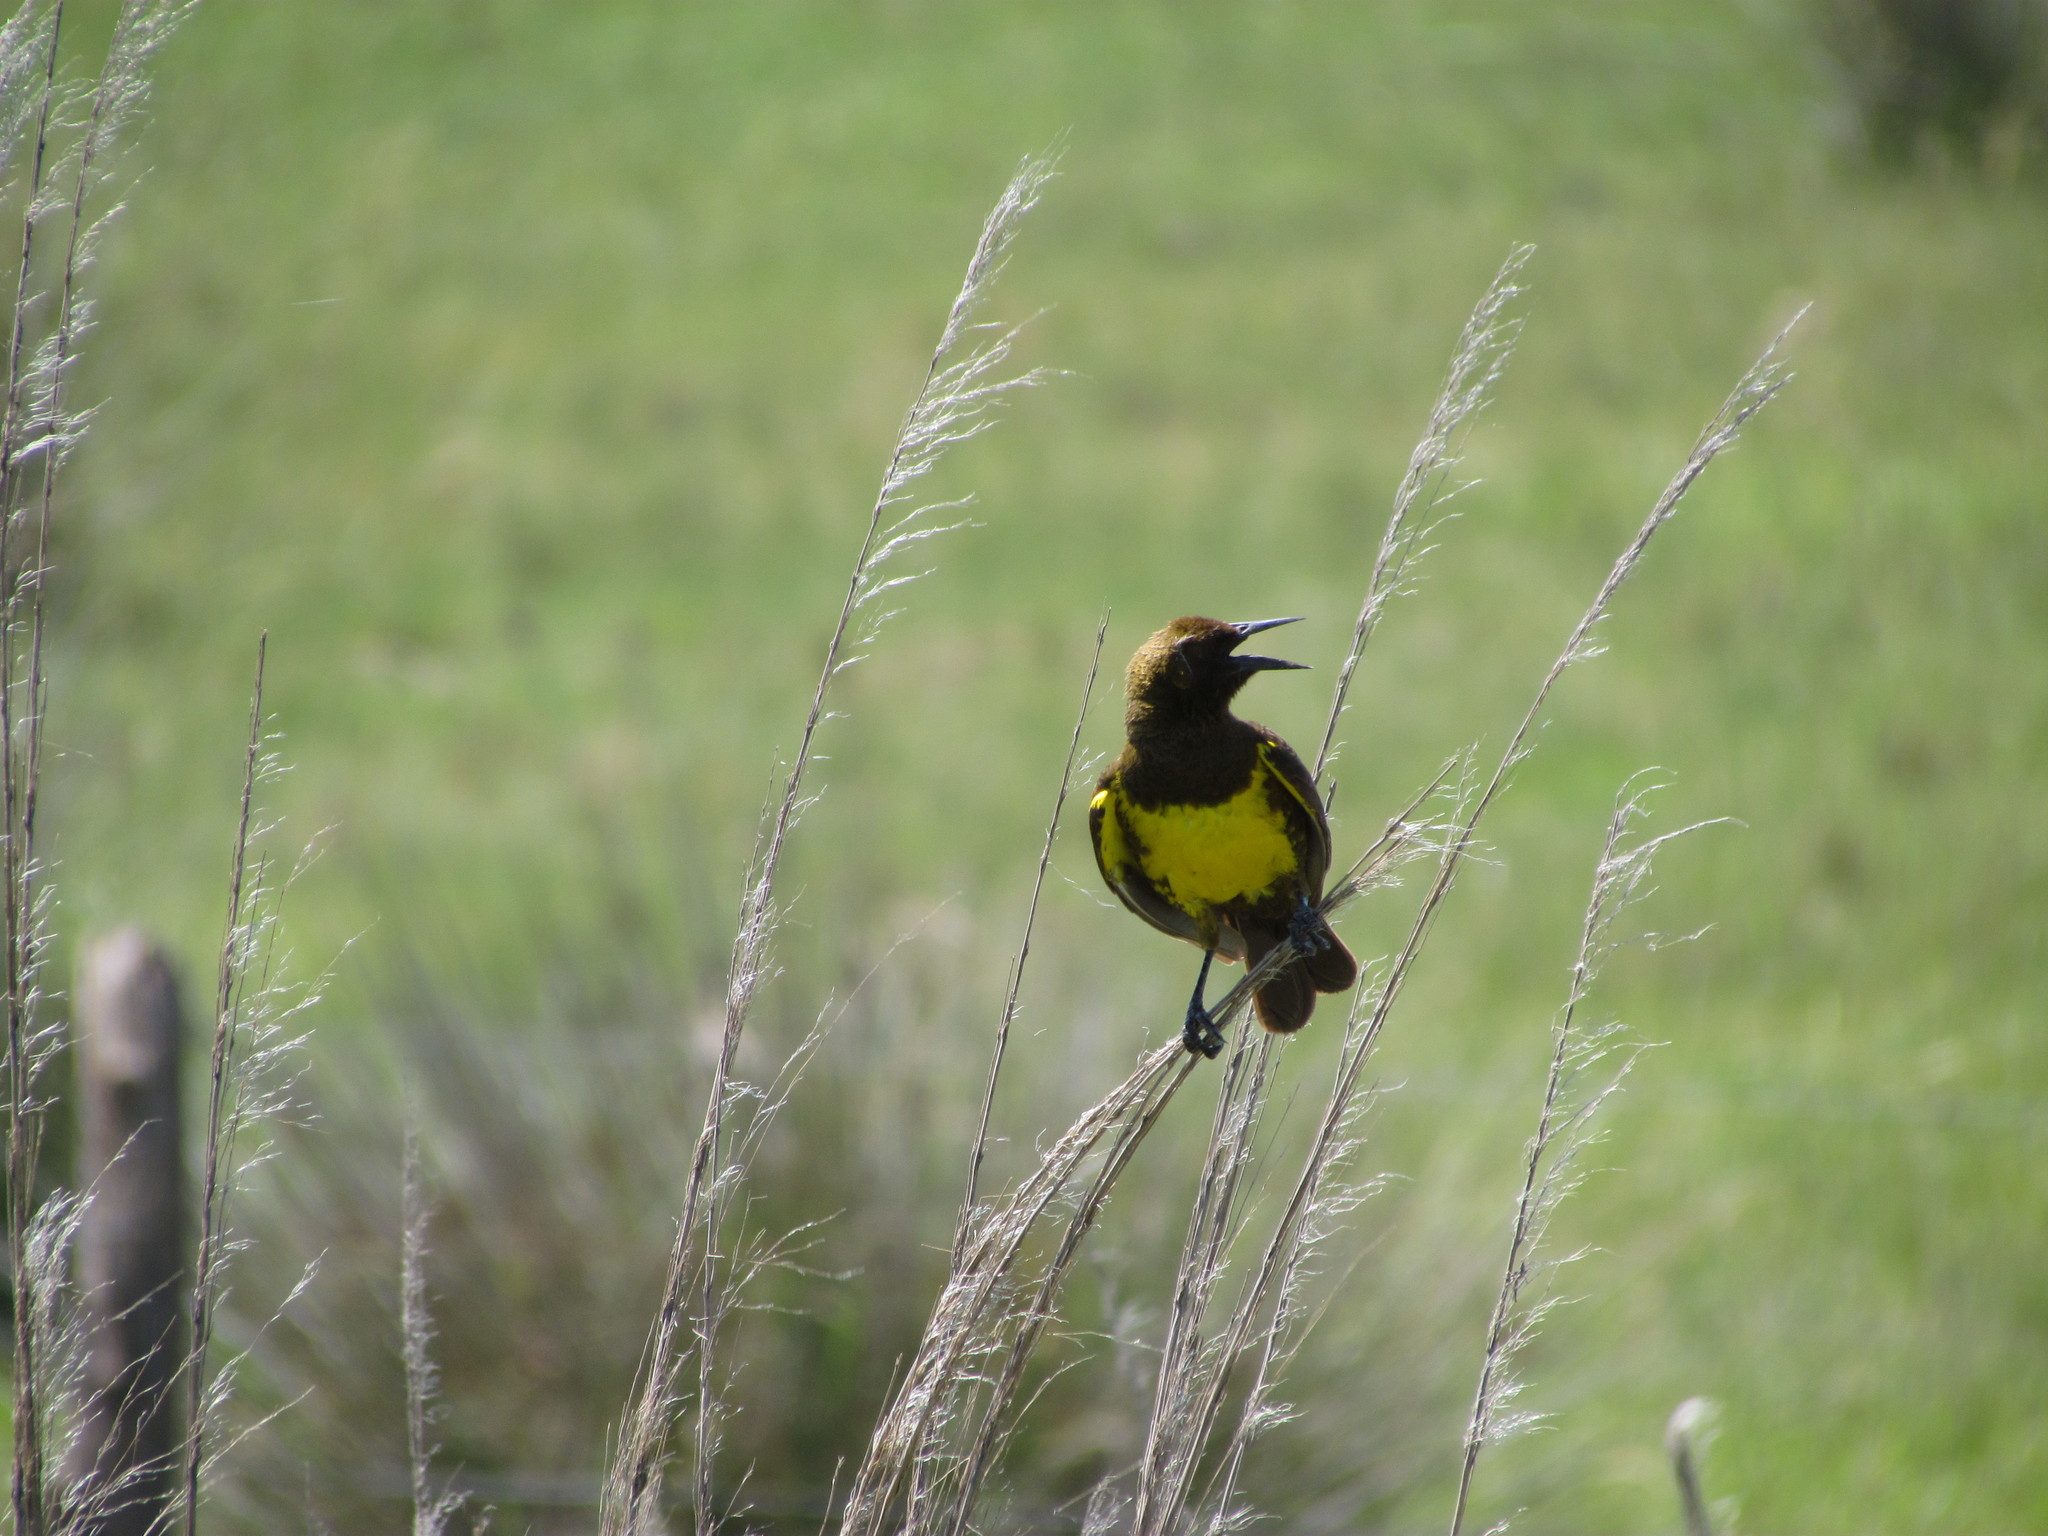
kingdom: Animalia
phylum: Chordata
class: Aves
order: Passeriformes
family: Icteridae
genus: Pseudoleistes
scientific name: Pseudoleistes virescens
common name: Brown-and-yellow marshbird
